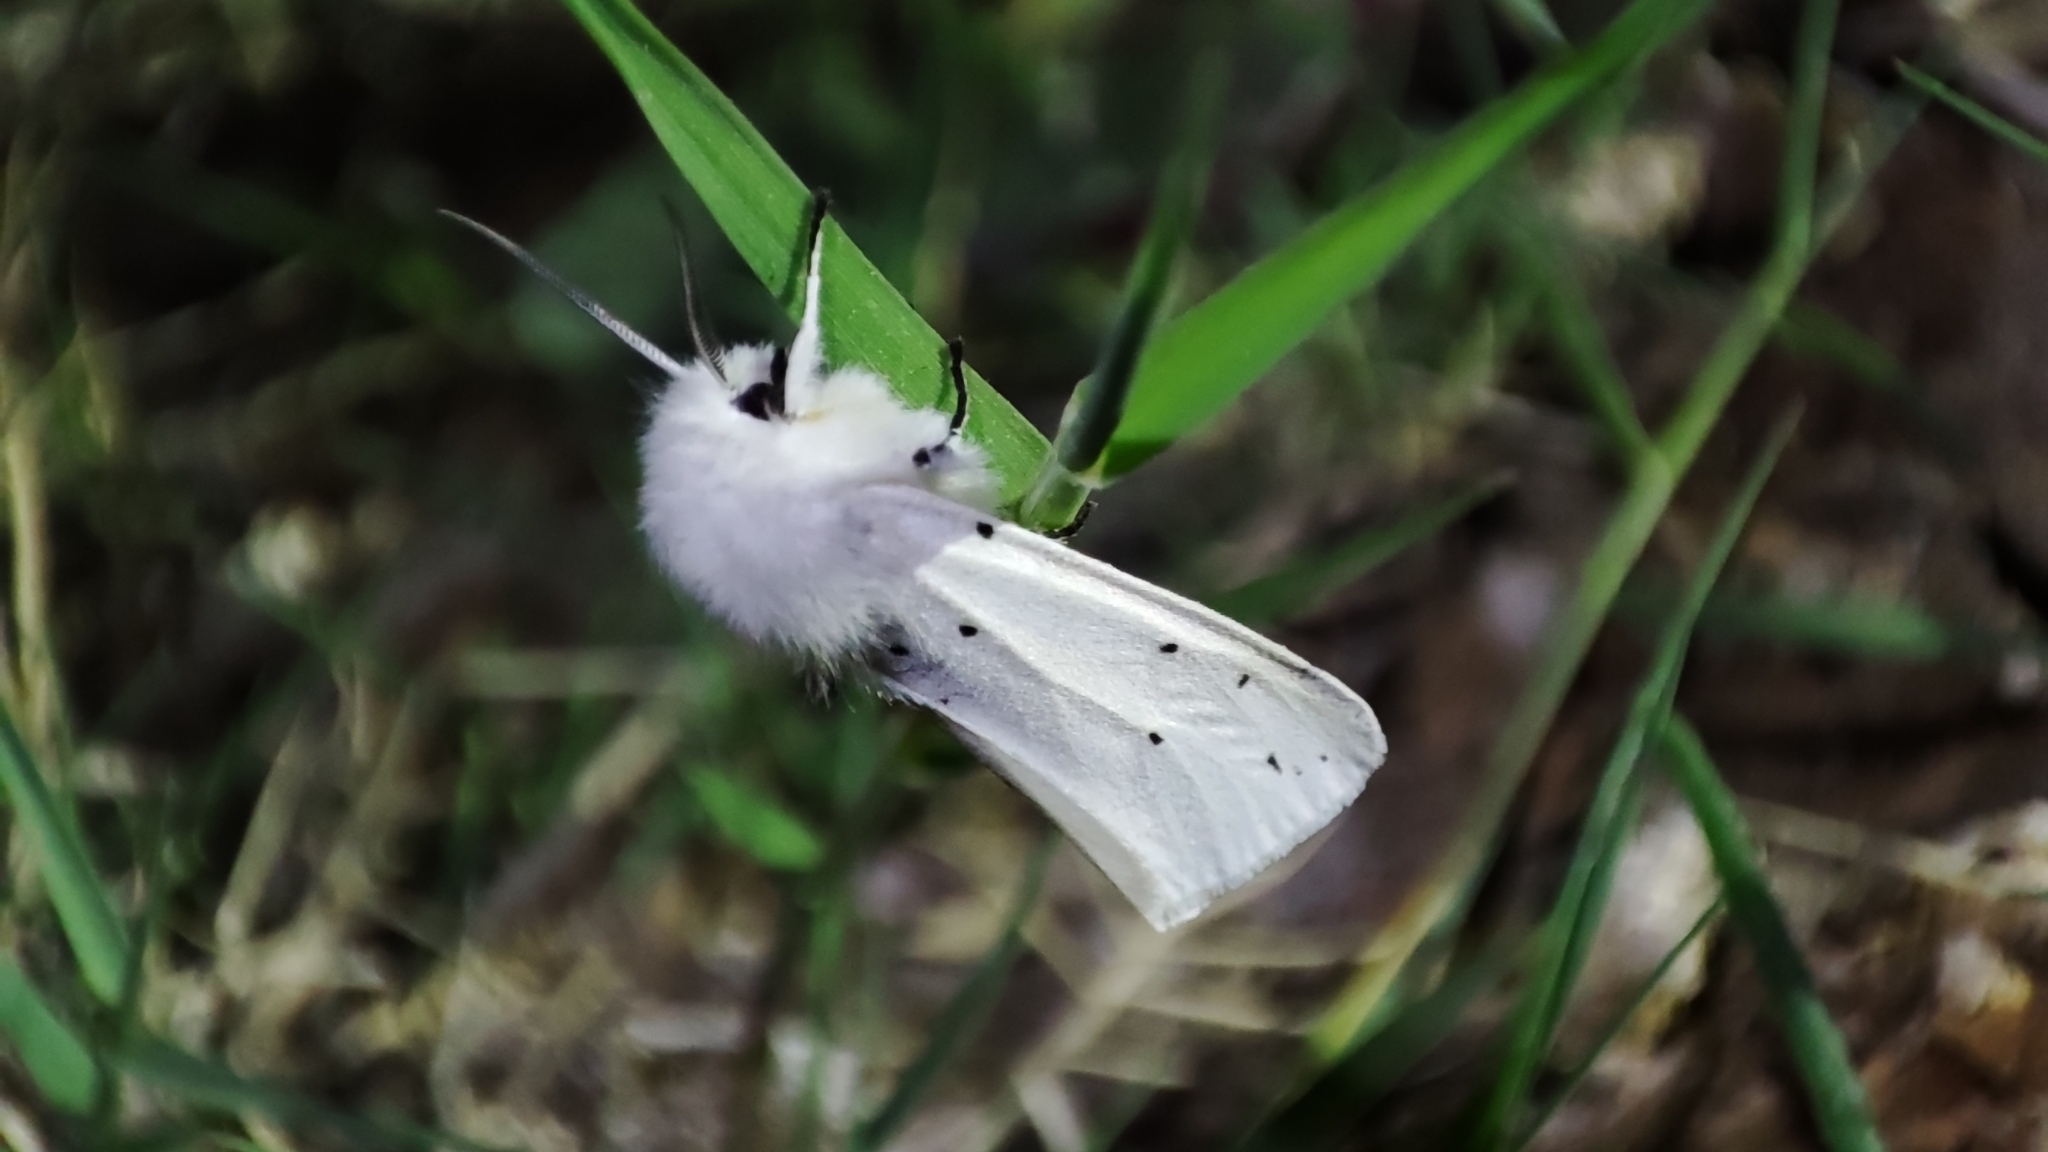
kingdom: Animalia
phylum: Arthropoda
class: Insecta
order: Lepidoptera
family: Erebidae
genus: Spilosoma
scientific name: Spilosoma urticae
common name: Water ermine
